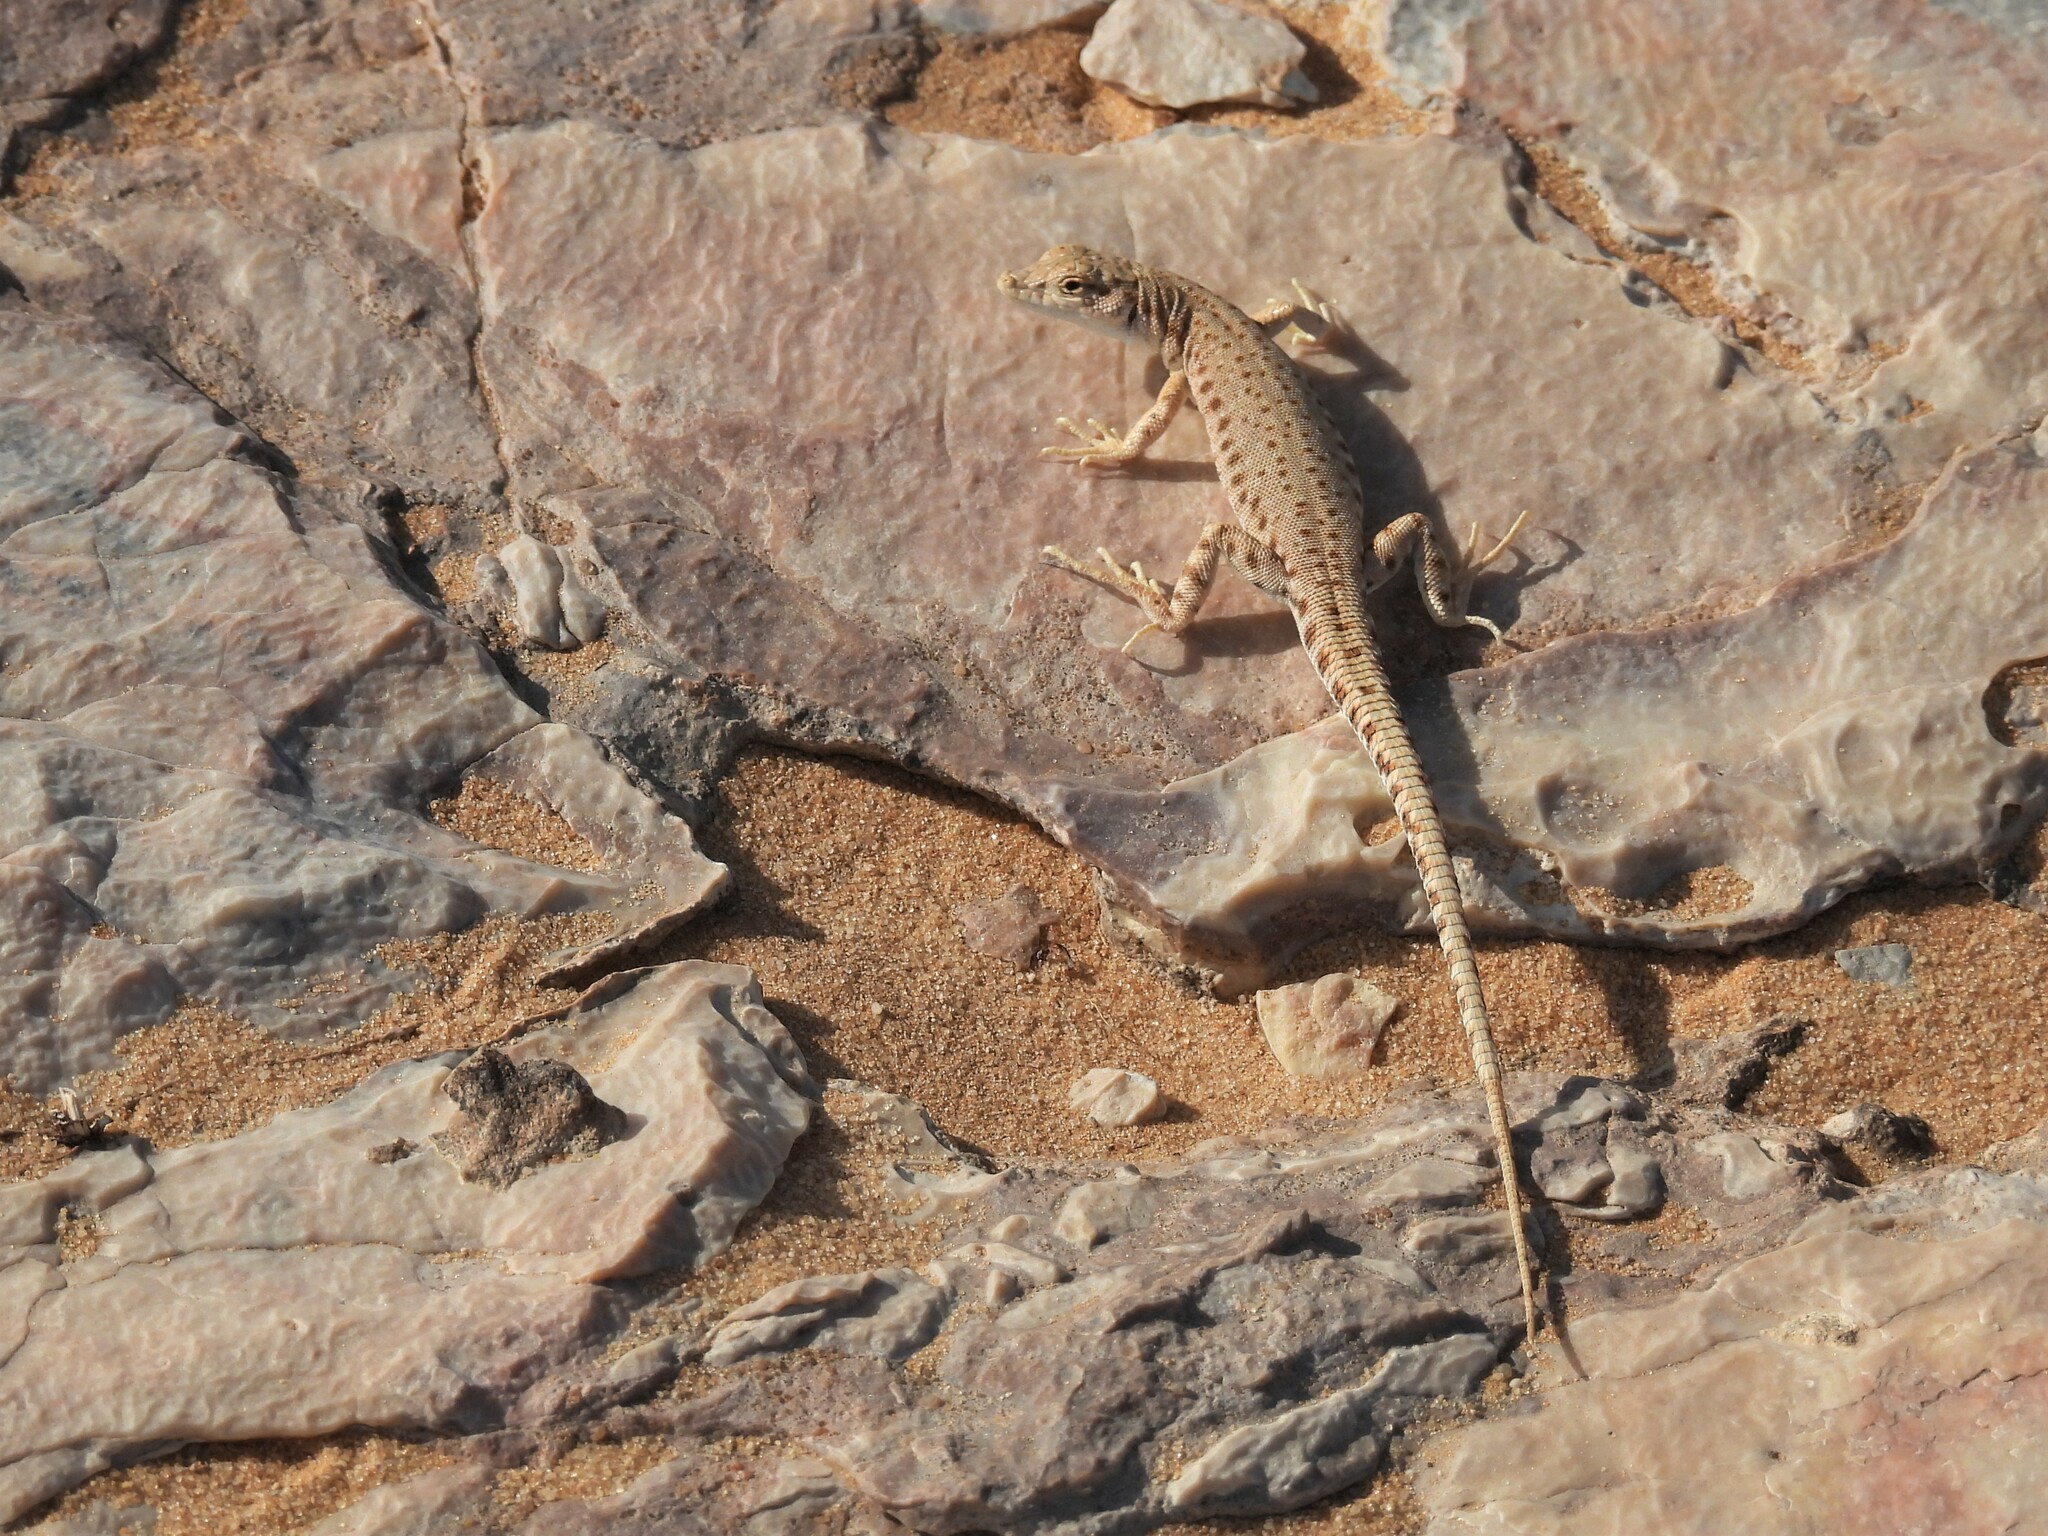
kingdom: Animalia
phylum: Chordata
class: Squamata
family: Lacertidae
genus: Mesalina
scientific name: Mesalina brevirostris
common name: Blanford's short-nosed desert lizard
